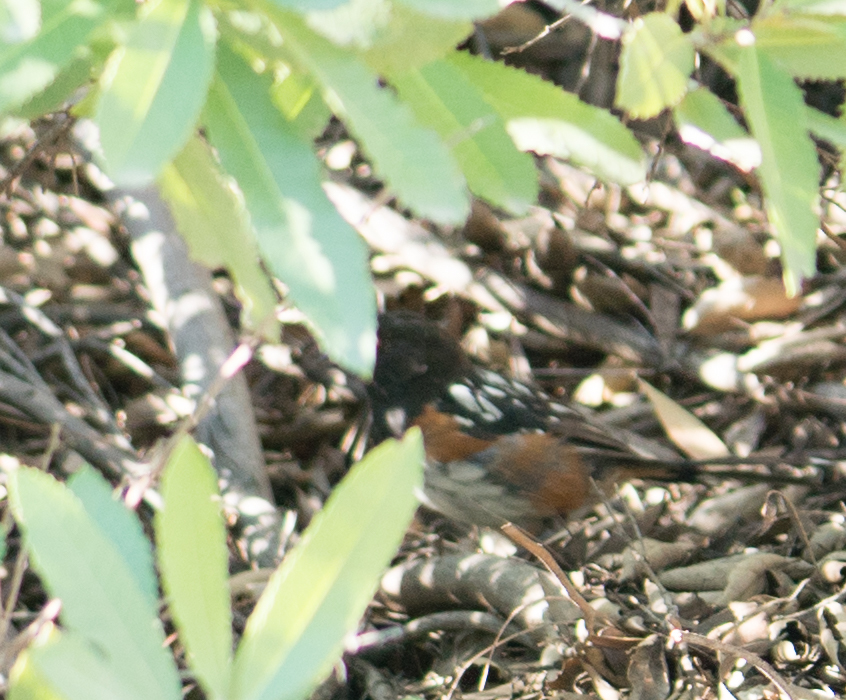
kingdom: Animalia
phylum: Chordata
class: Aves
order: Passeriformes
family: Passerellidae
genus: Pipilo
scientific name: Pipilo maculatus
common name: Spotted towhee
